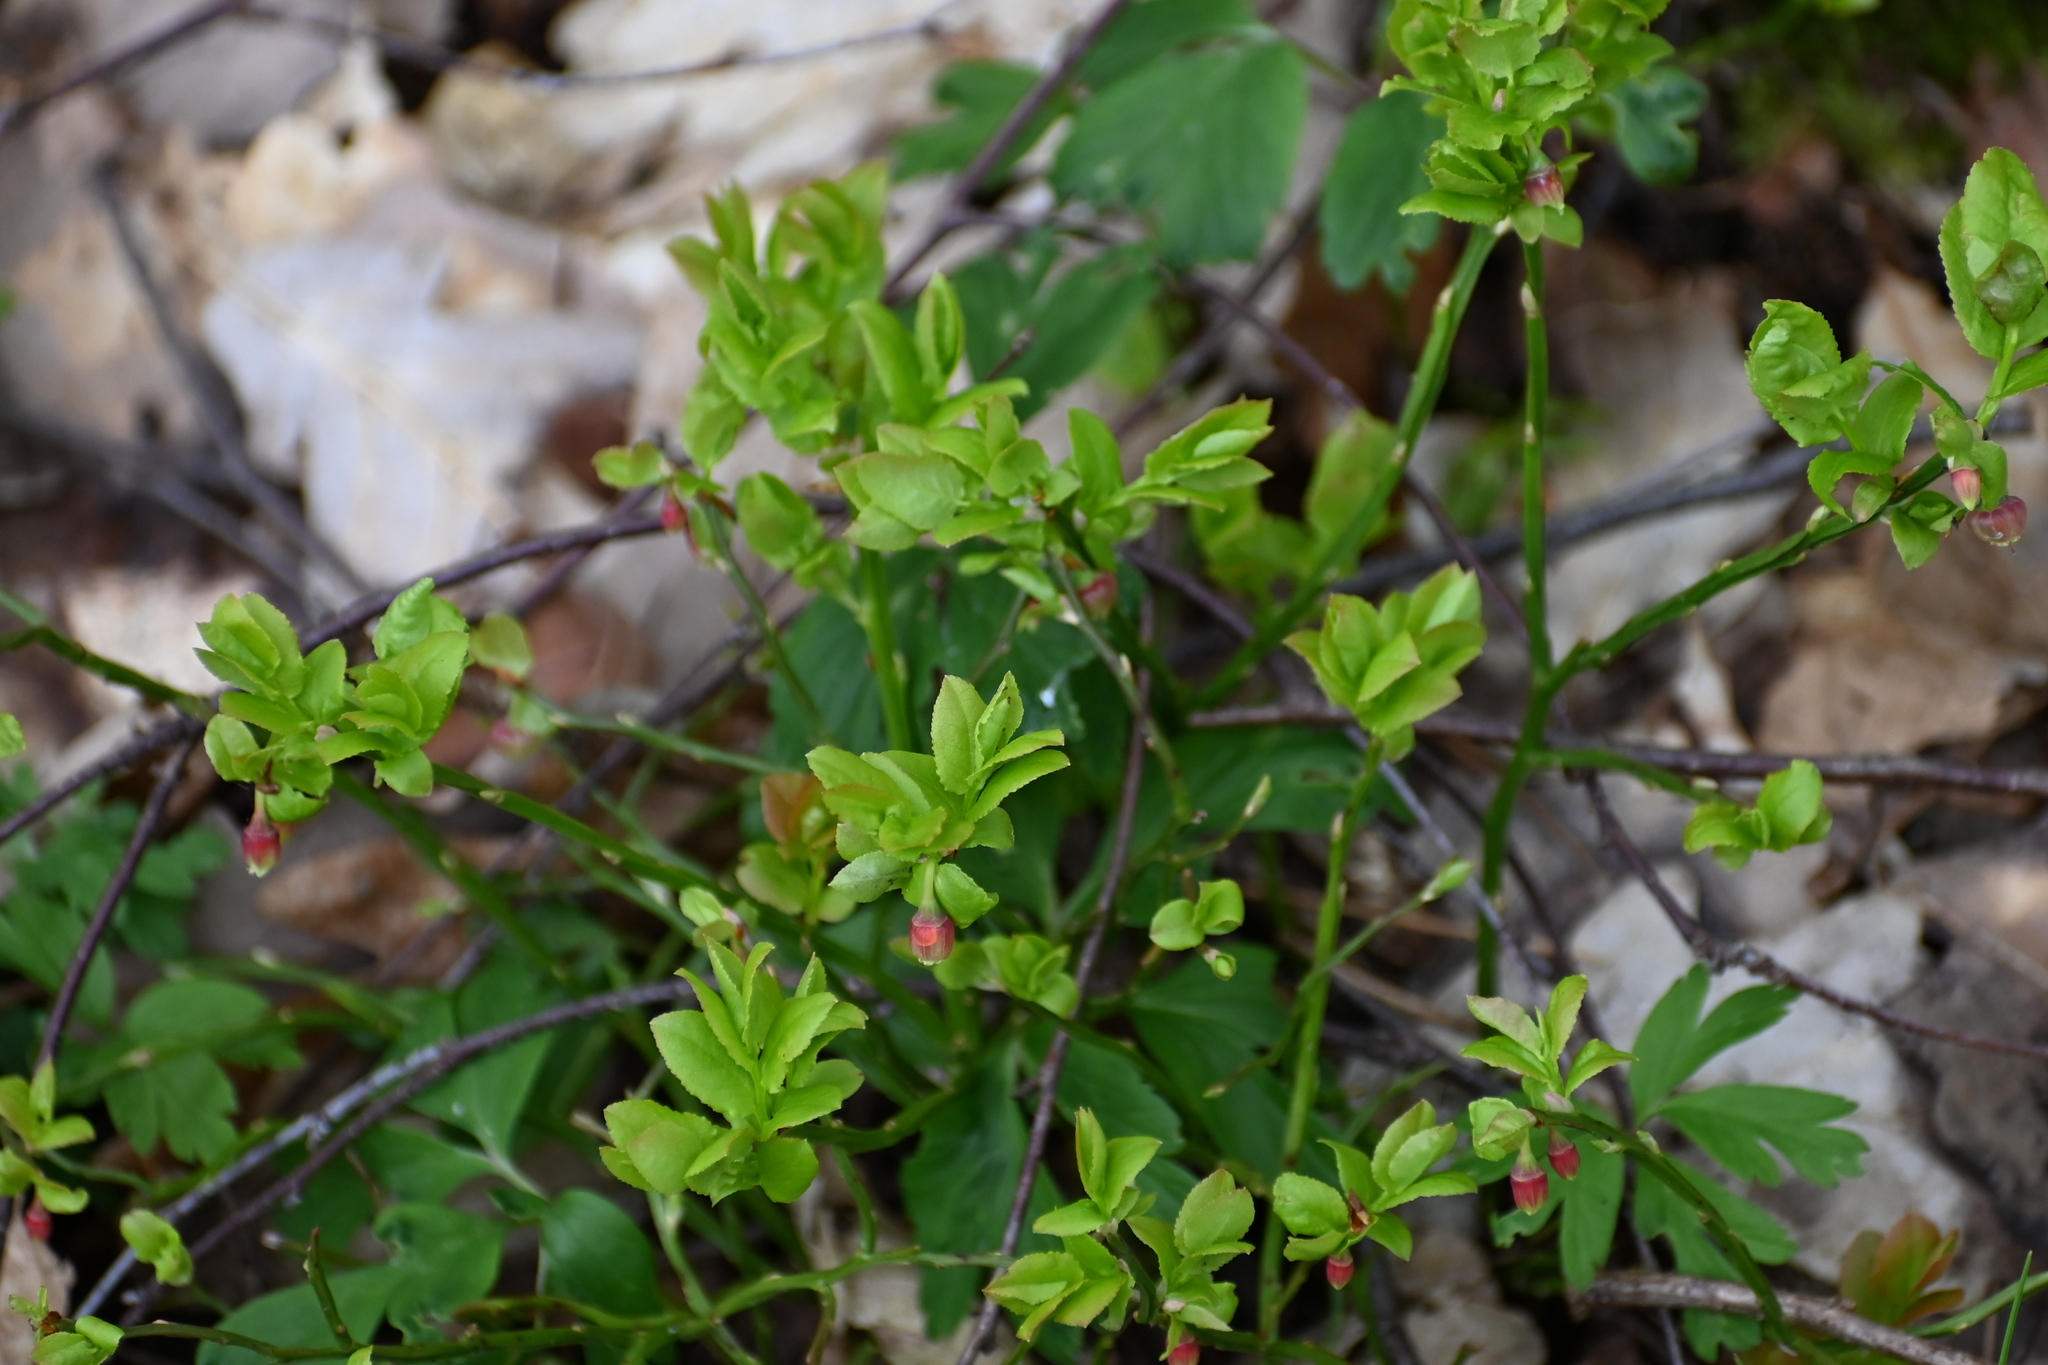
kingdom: Plantae
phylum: Tracheophyta
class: Magnoliopsida
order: Ericales
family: Ericaceae
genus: Vaccinium
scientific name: Vaccinium myrtillus
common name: Bilberry
